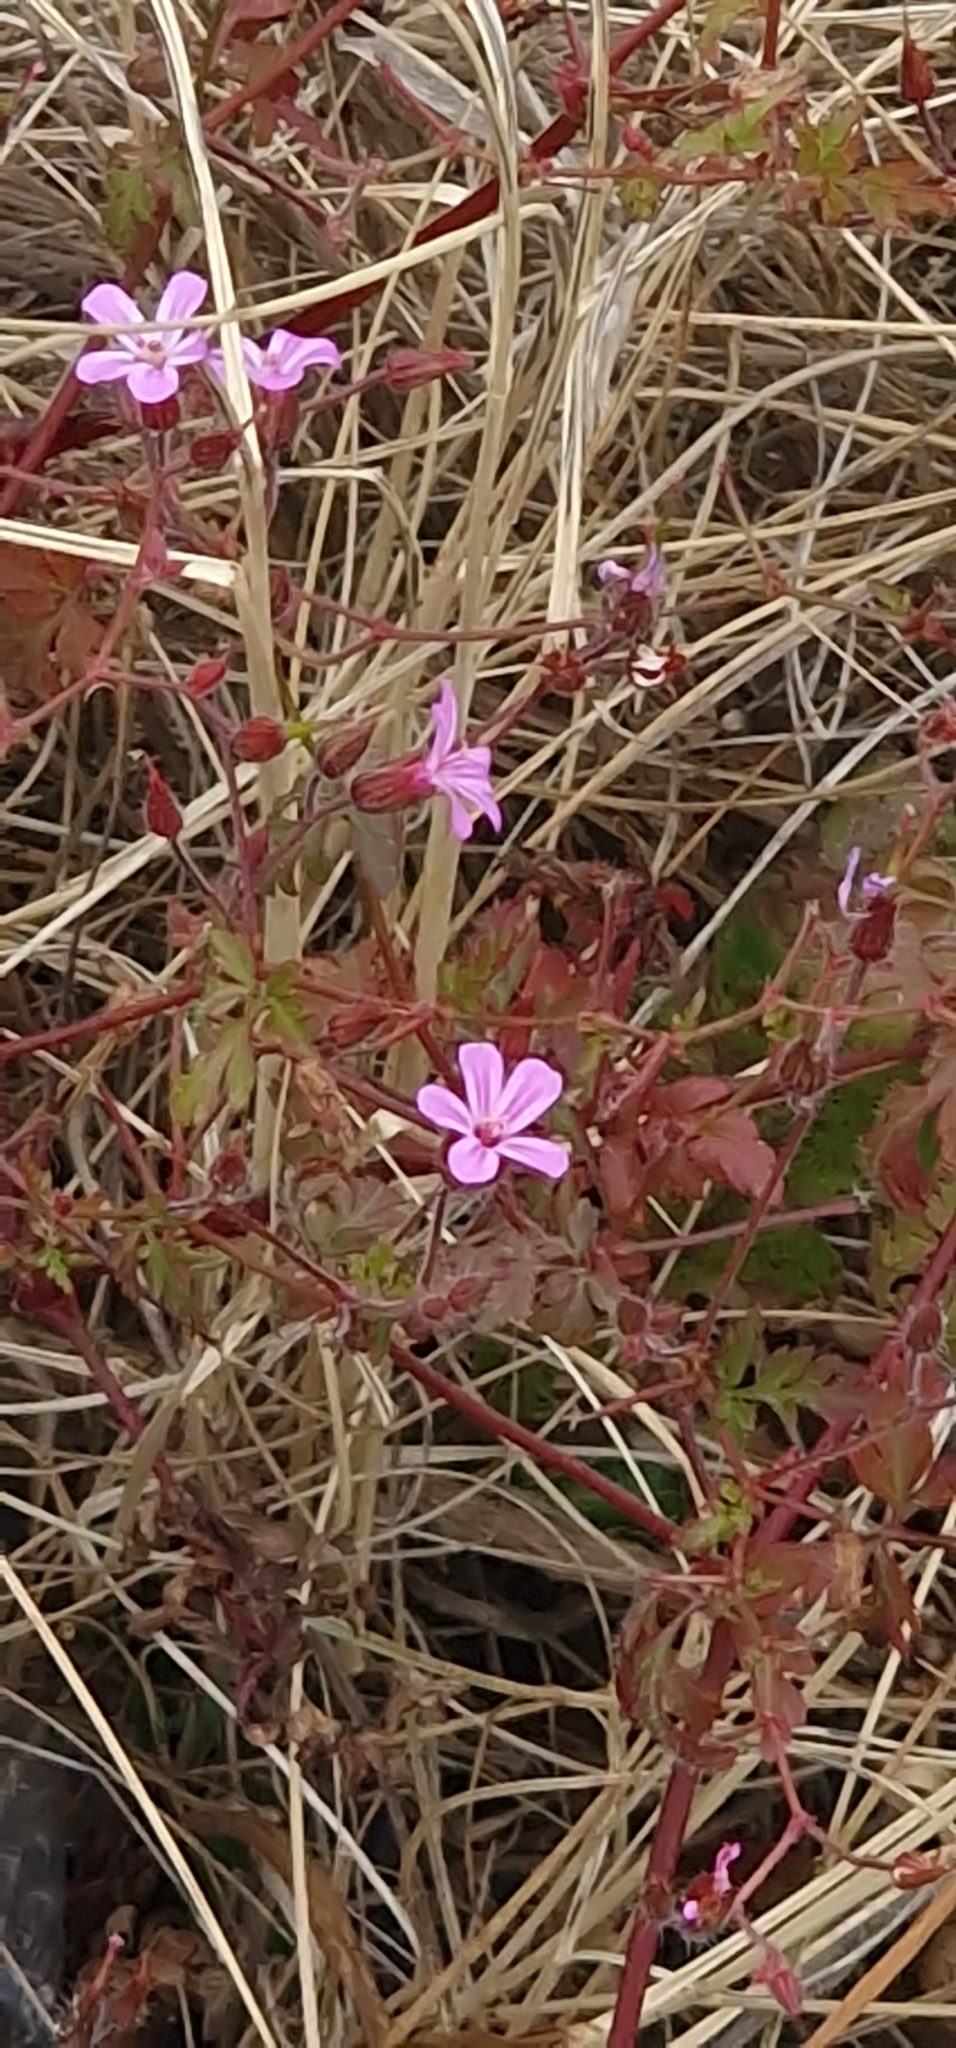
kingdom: Plantae
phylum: Tracheophyta
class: Magnoliopsida
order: Geraniales
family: Geraniaceae
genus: Geranium
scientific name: Geranium robertianum
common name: Herb-robert
